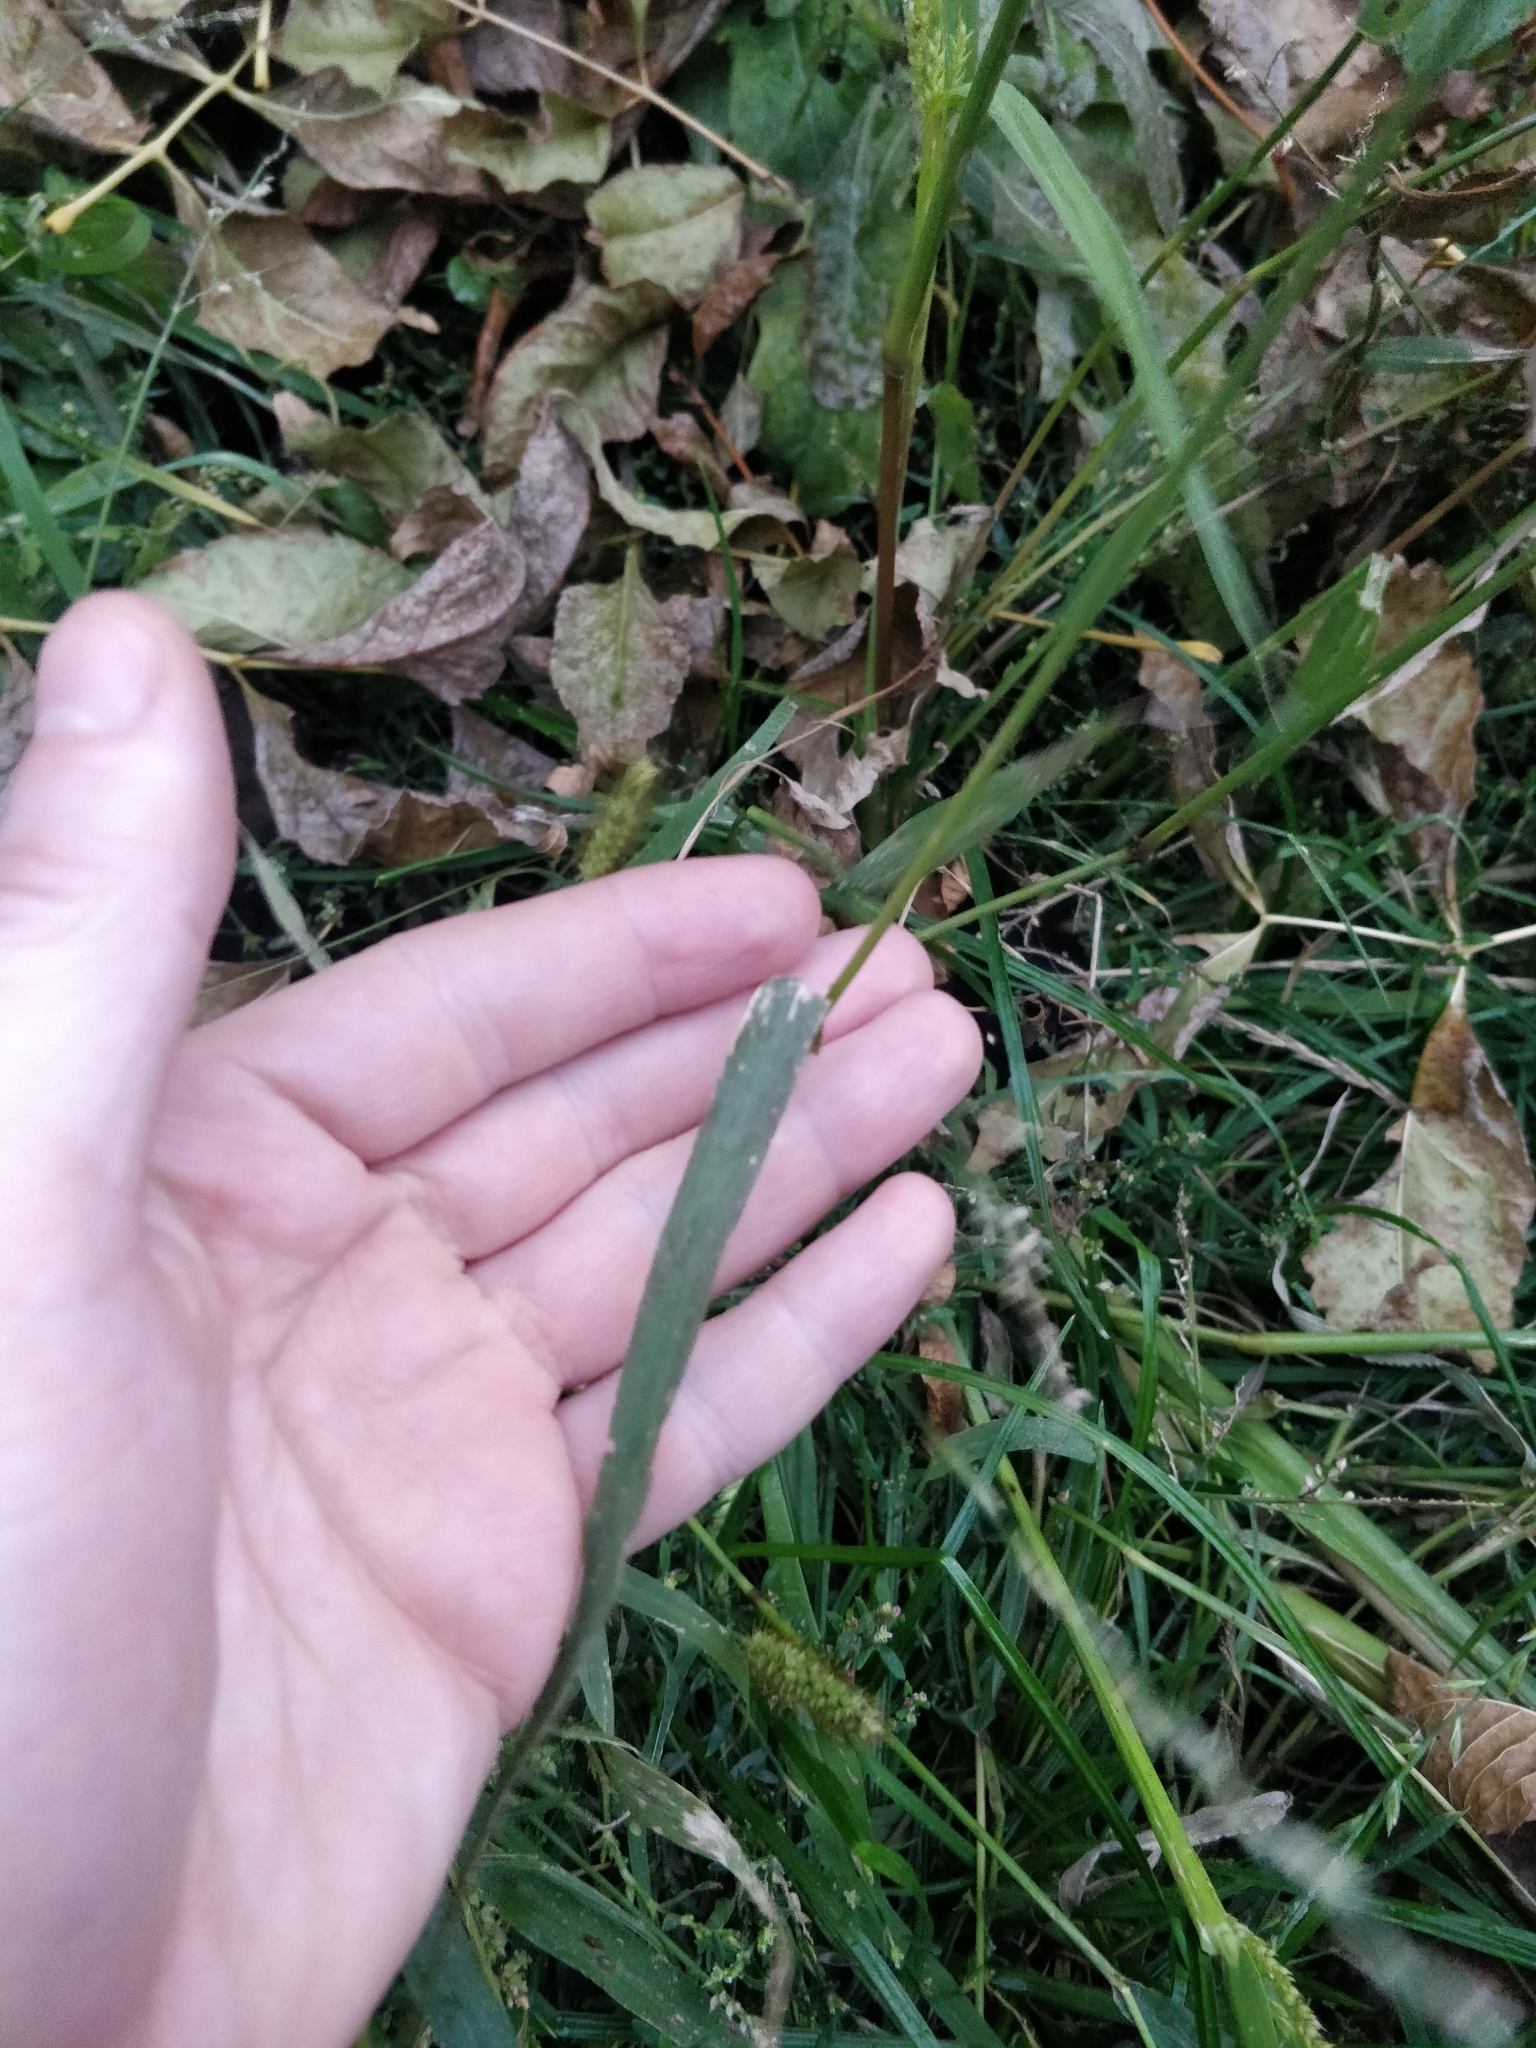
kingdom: Plantae
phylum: Tracheophyta
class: Liliopsida
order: Poales
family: Poaceae
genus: Setaria
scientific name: Setaria pumila
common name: Yellow bristle-grass
